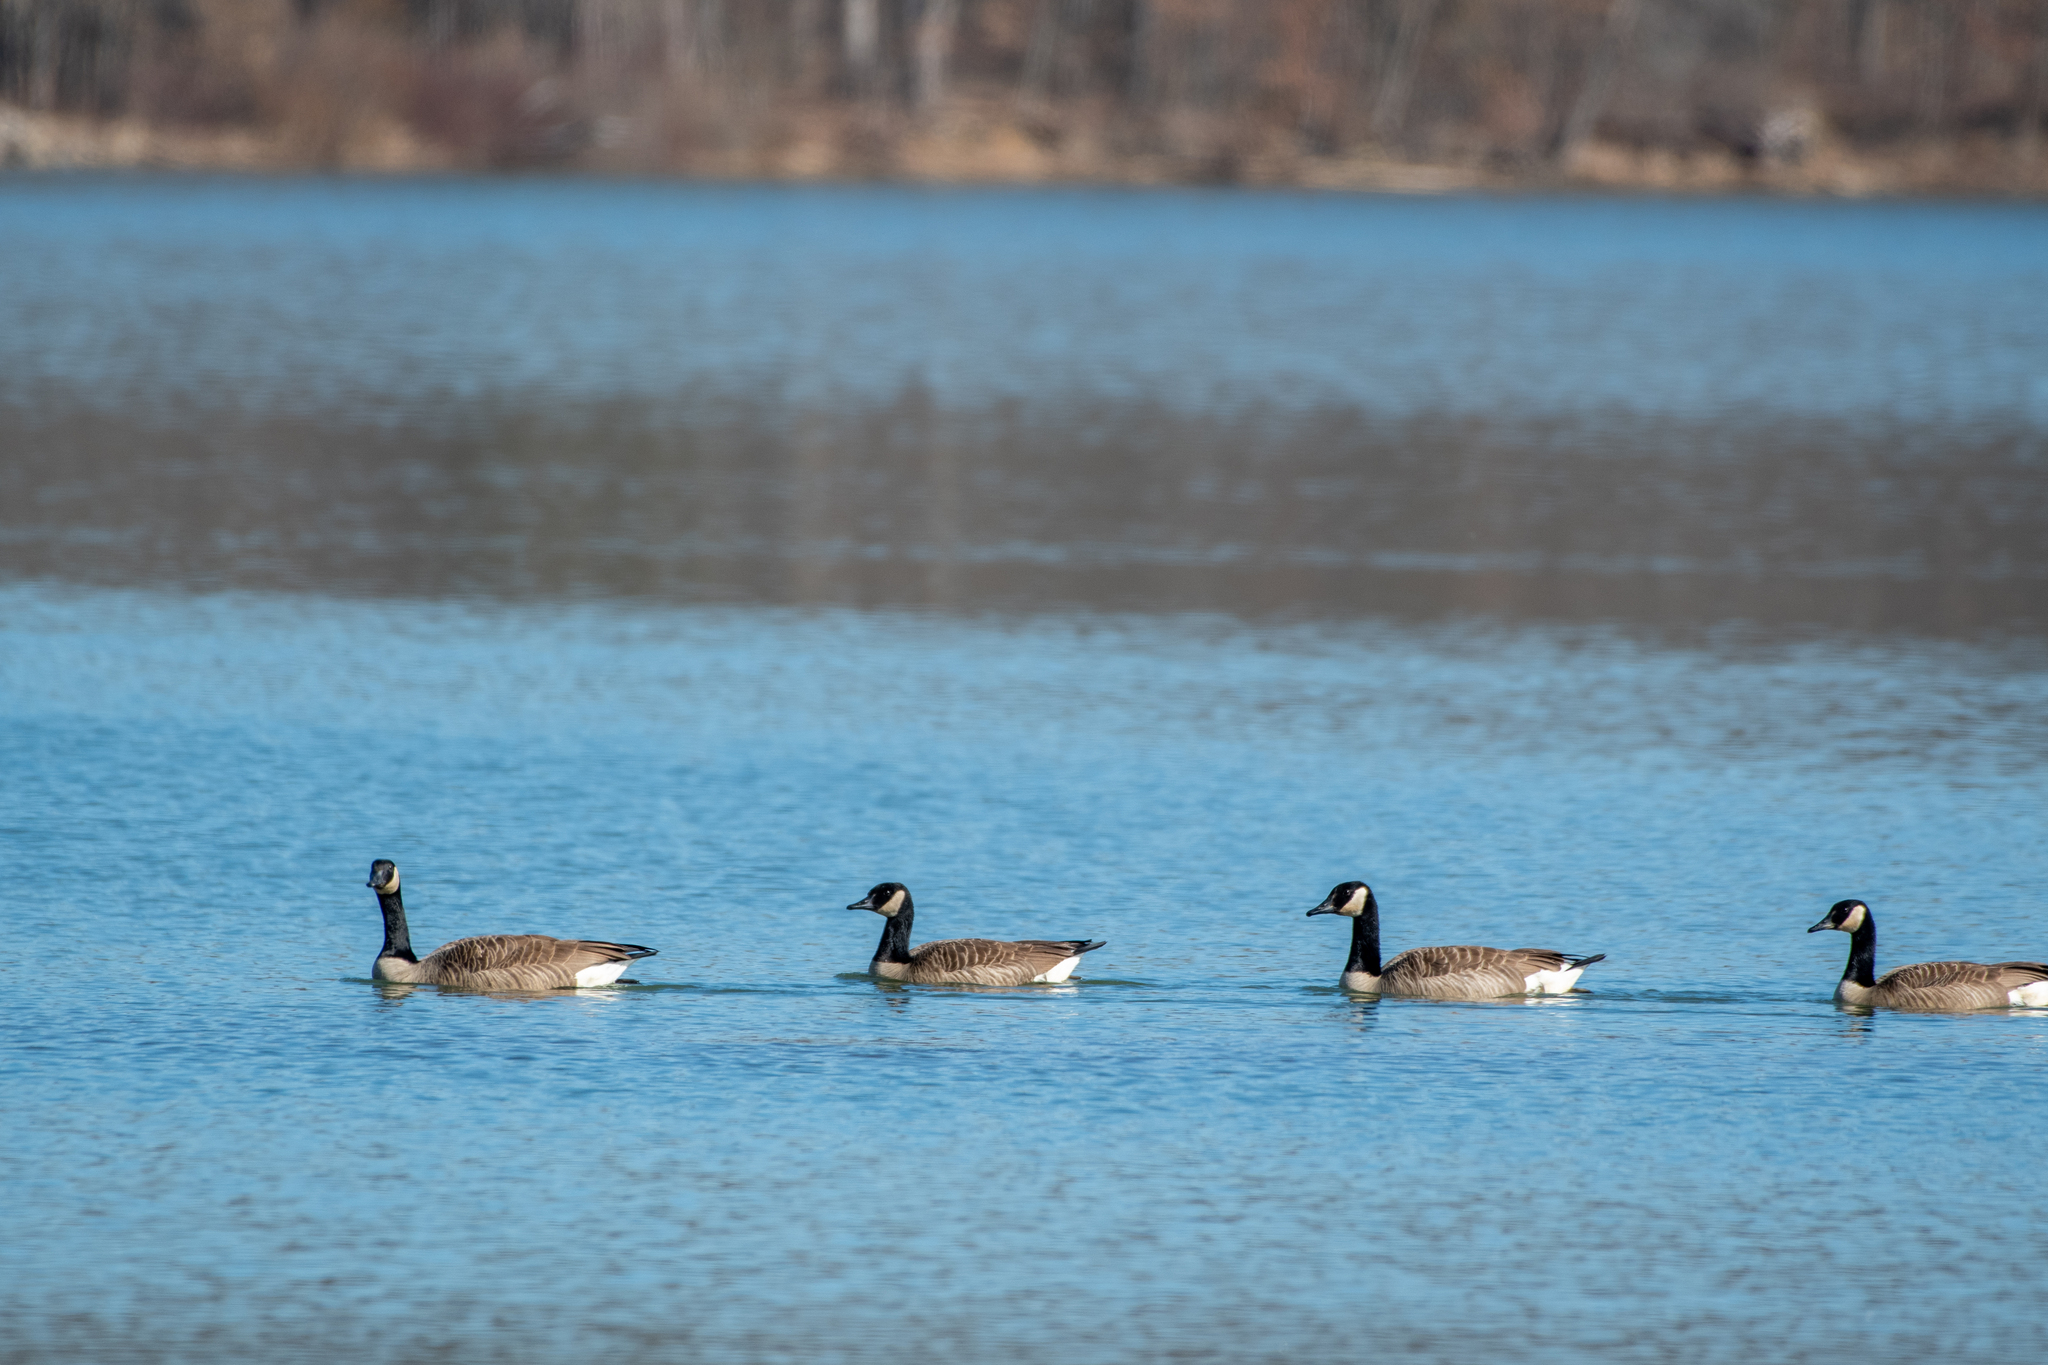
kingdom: Animalia
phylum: Chordata
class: Aves
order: Anseriformes
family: Anatidae
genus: Branta
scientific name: Branta canadensis
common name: Canada goose
